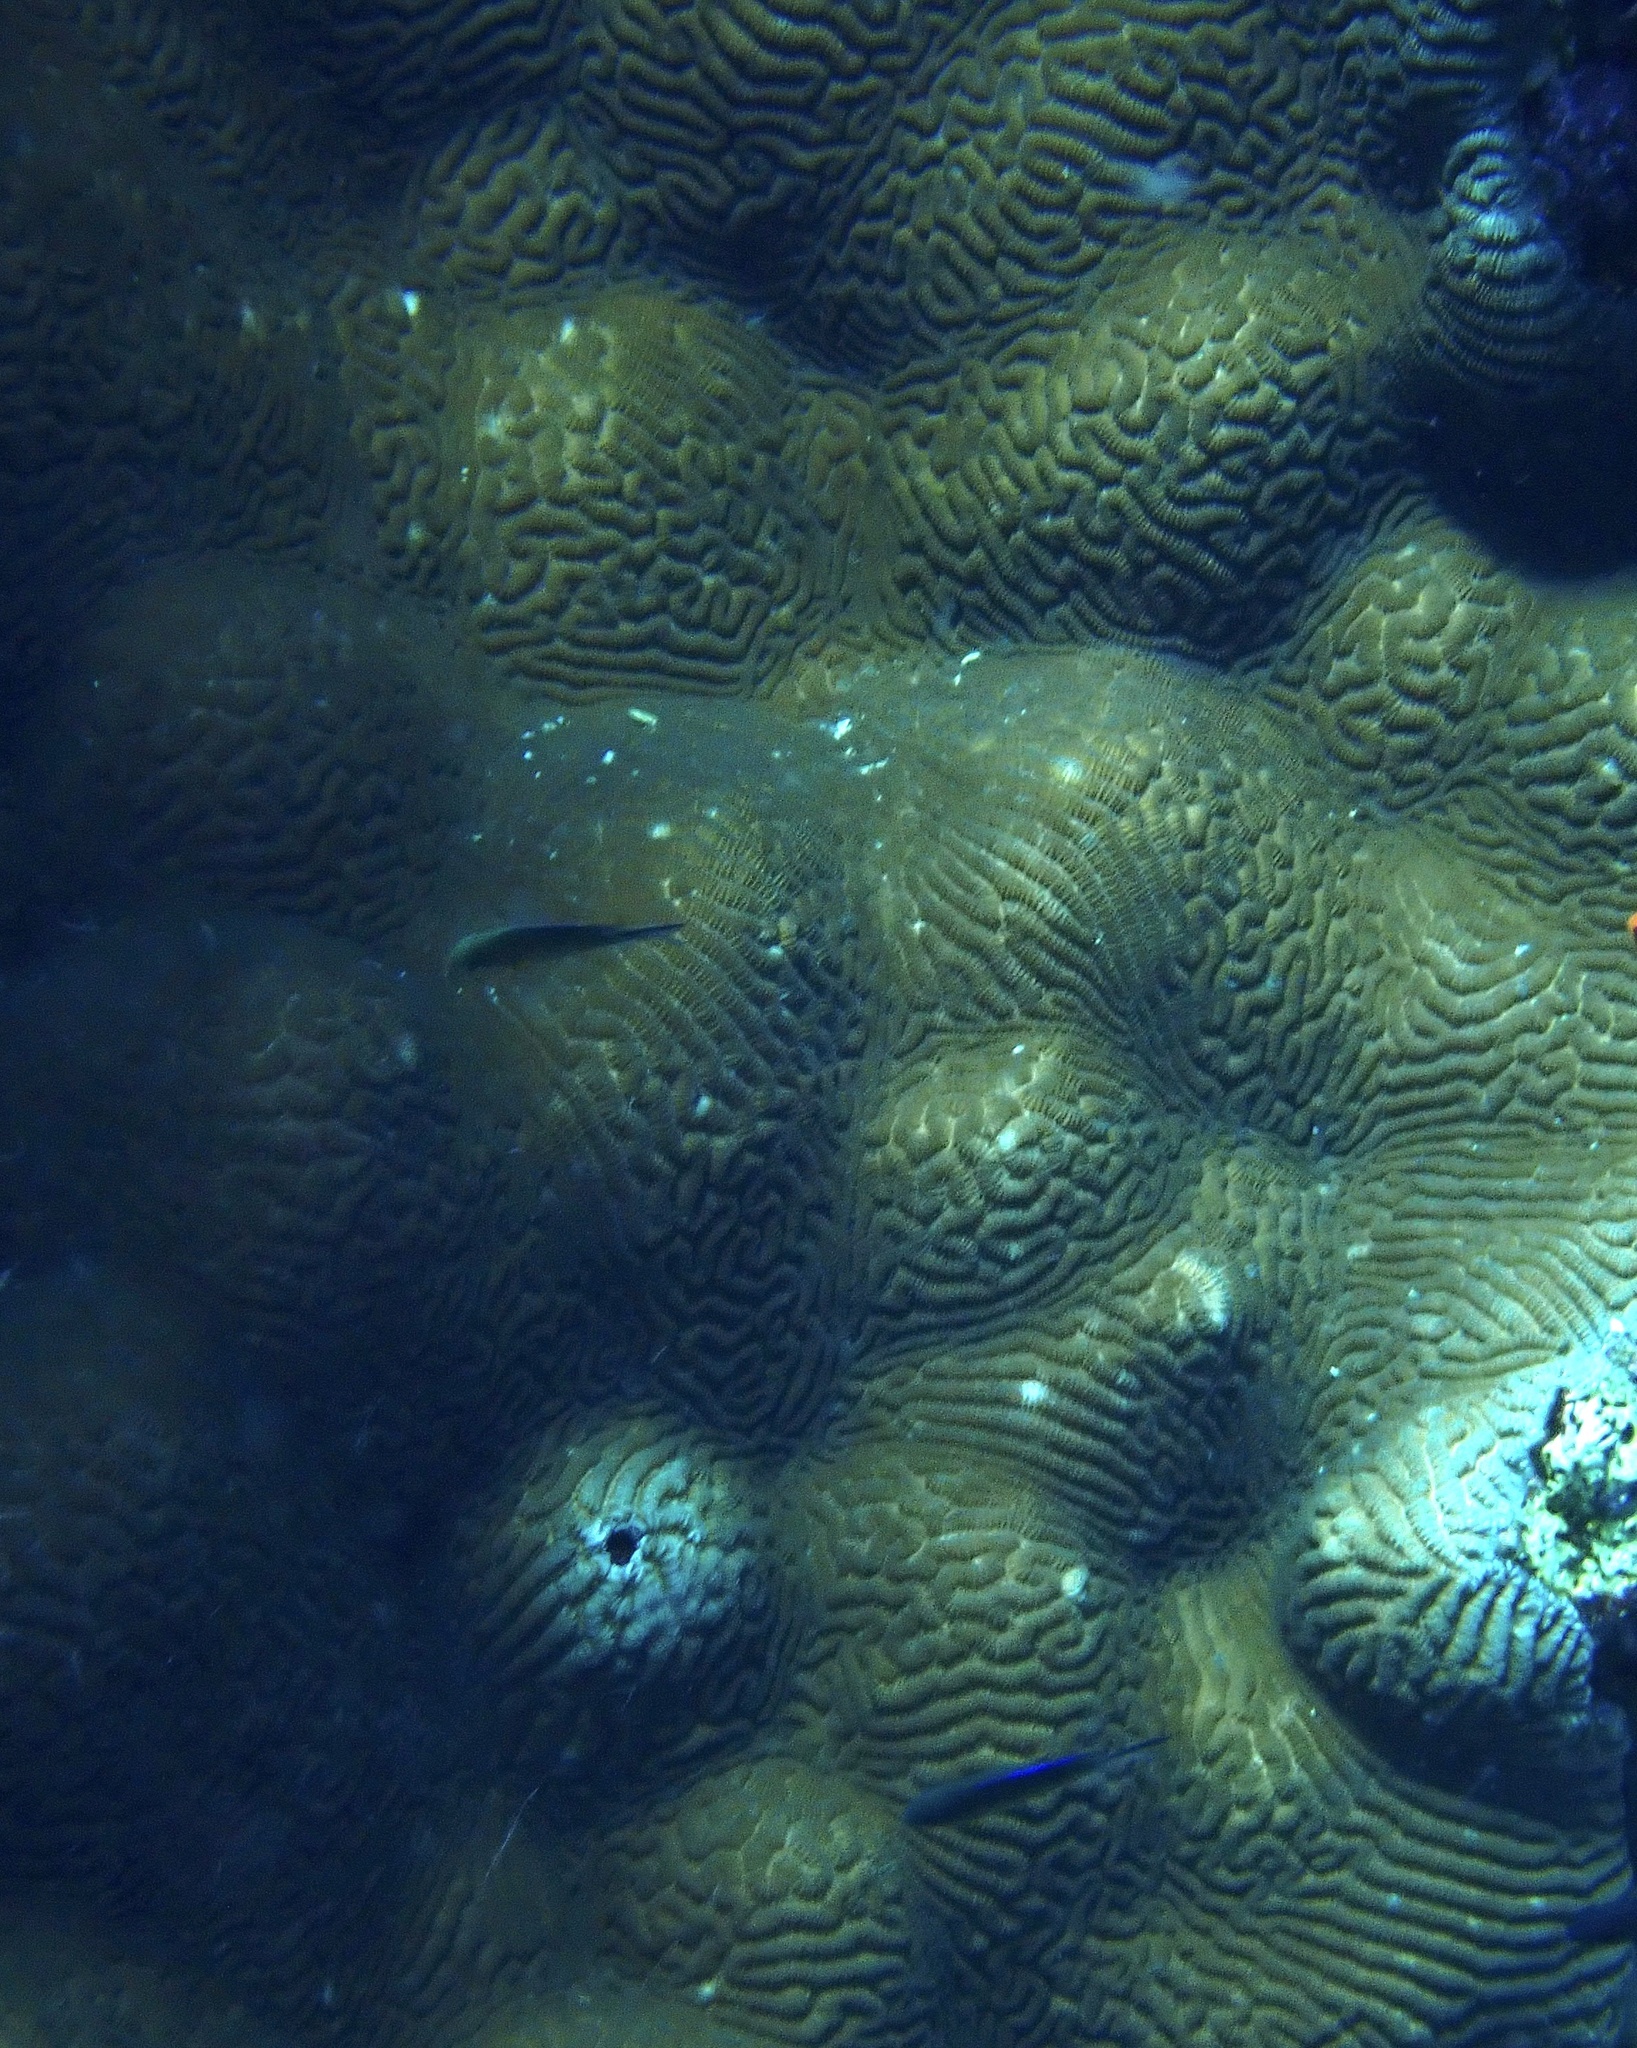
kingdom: Animalia
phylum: Cnidaria
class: Anthozoa
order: Scleractinia
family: Merulinidae
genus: Leptoria
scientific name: Leptoria phrygia
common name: Least valley coral
